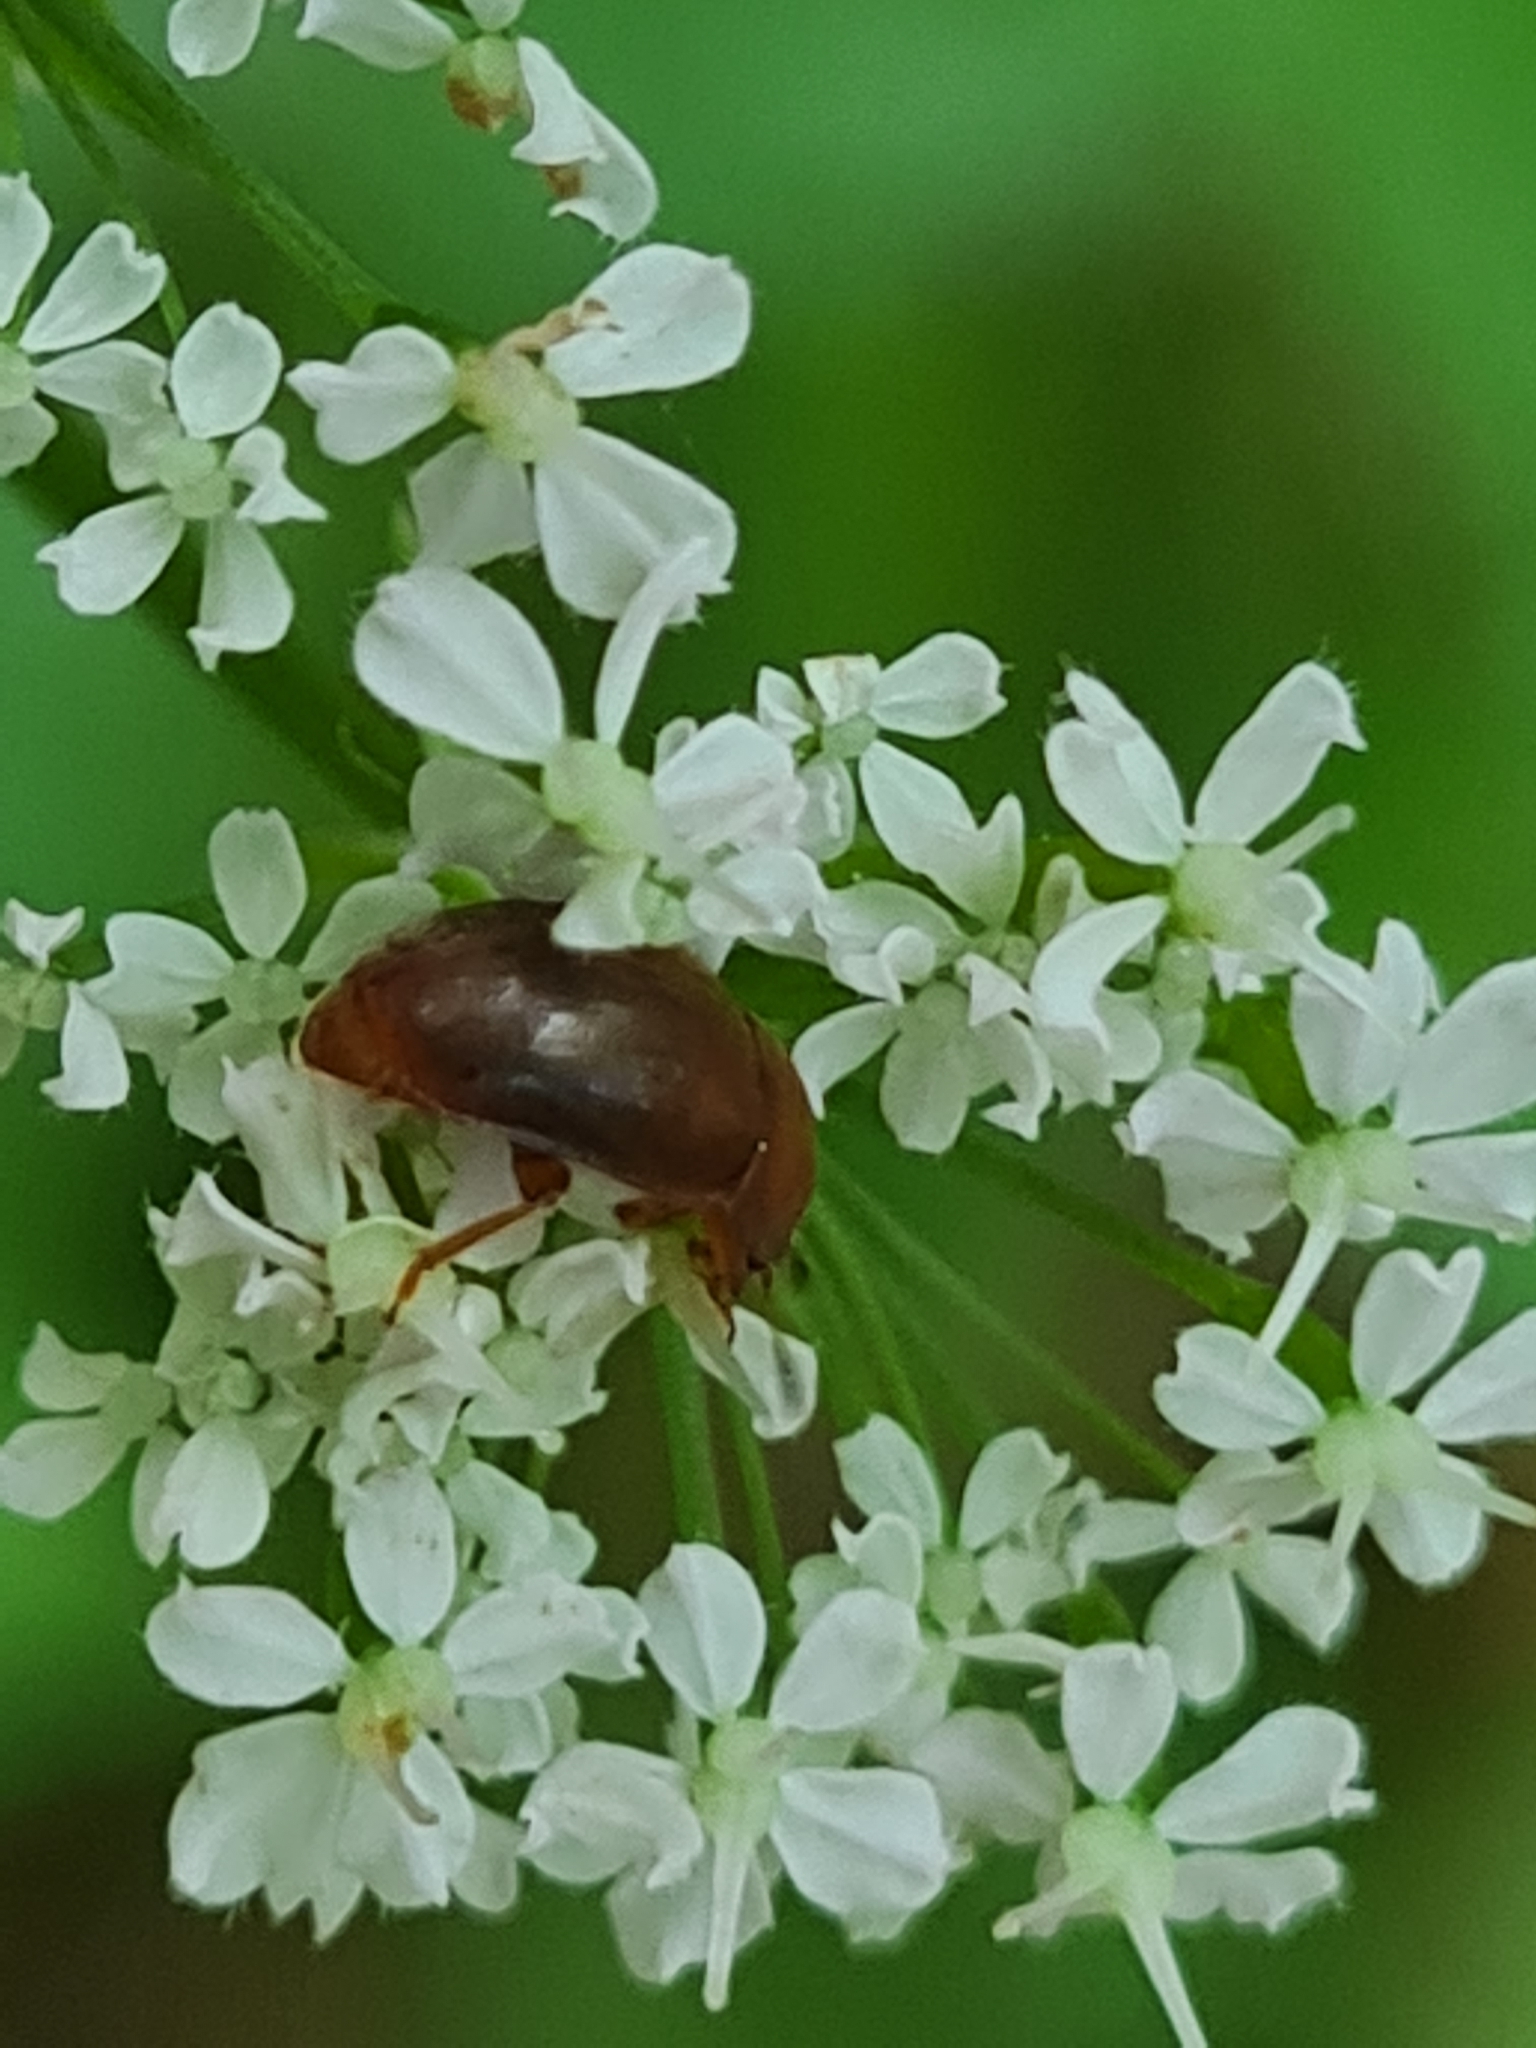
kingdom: Animalia
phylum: Arthropoda
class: Insecta
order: Coleoptera
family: Nitidulidae
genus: Cychramus
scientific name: Cychramus luteus
